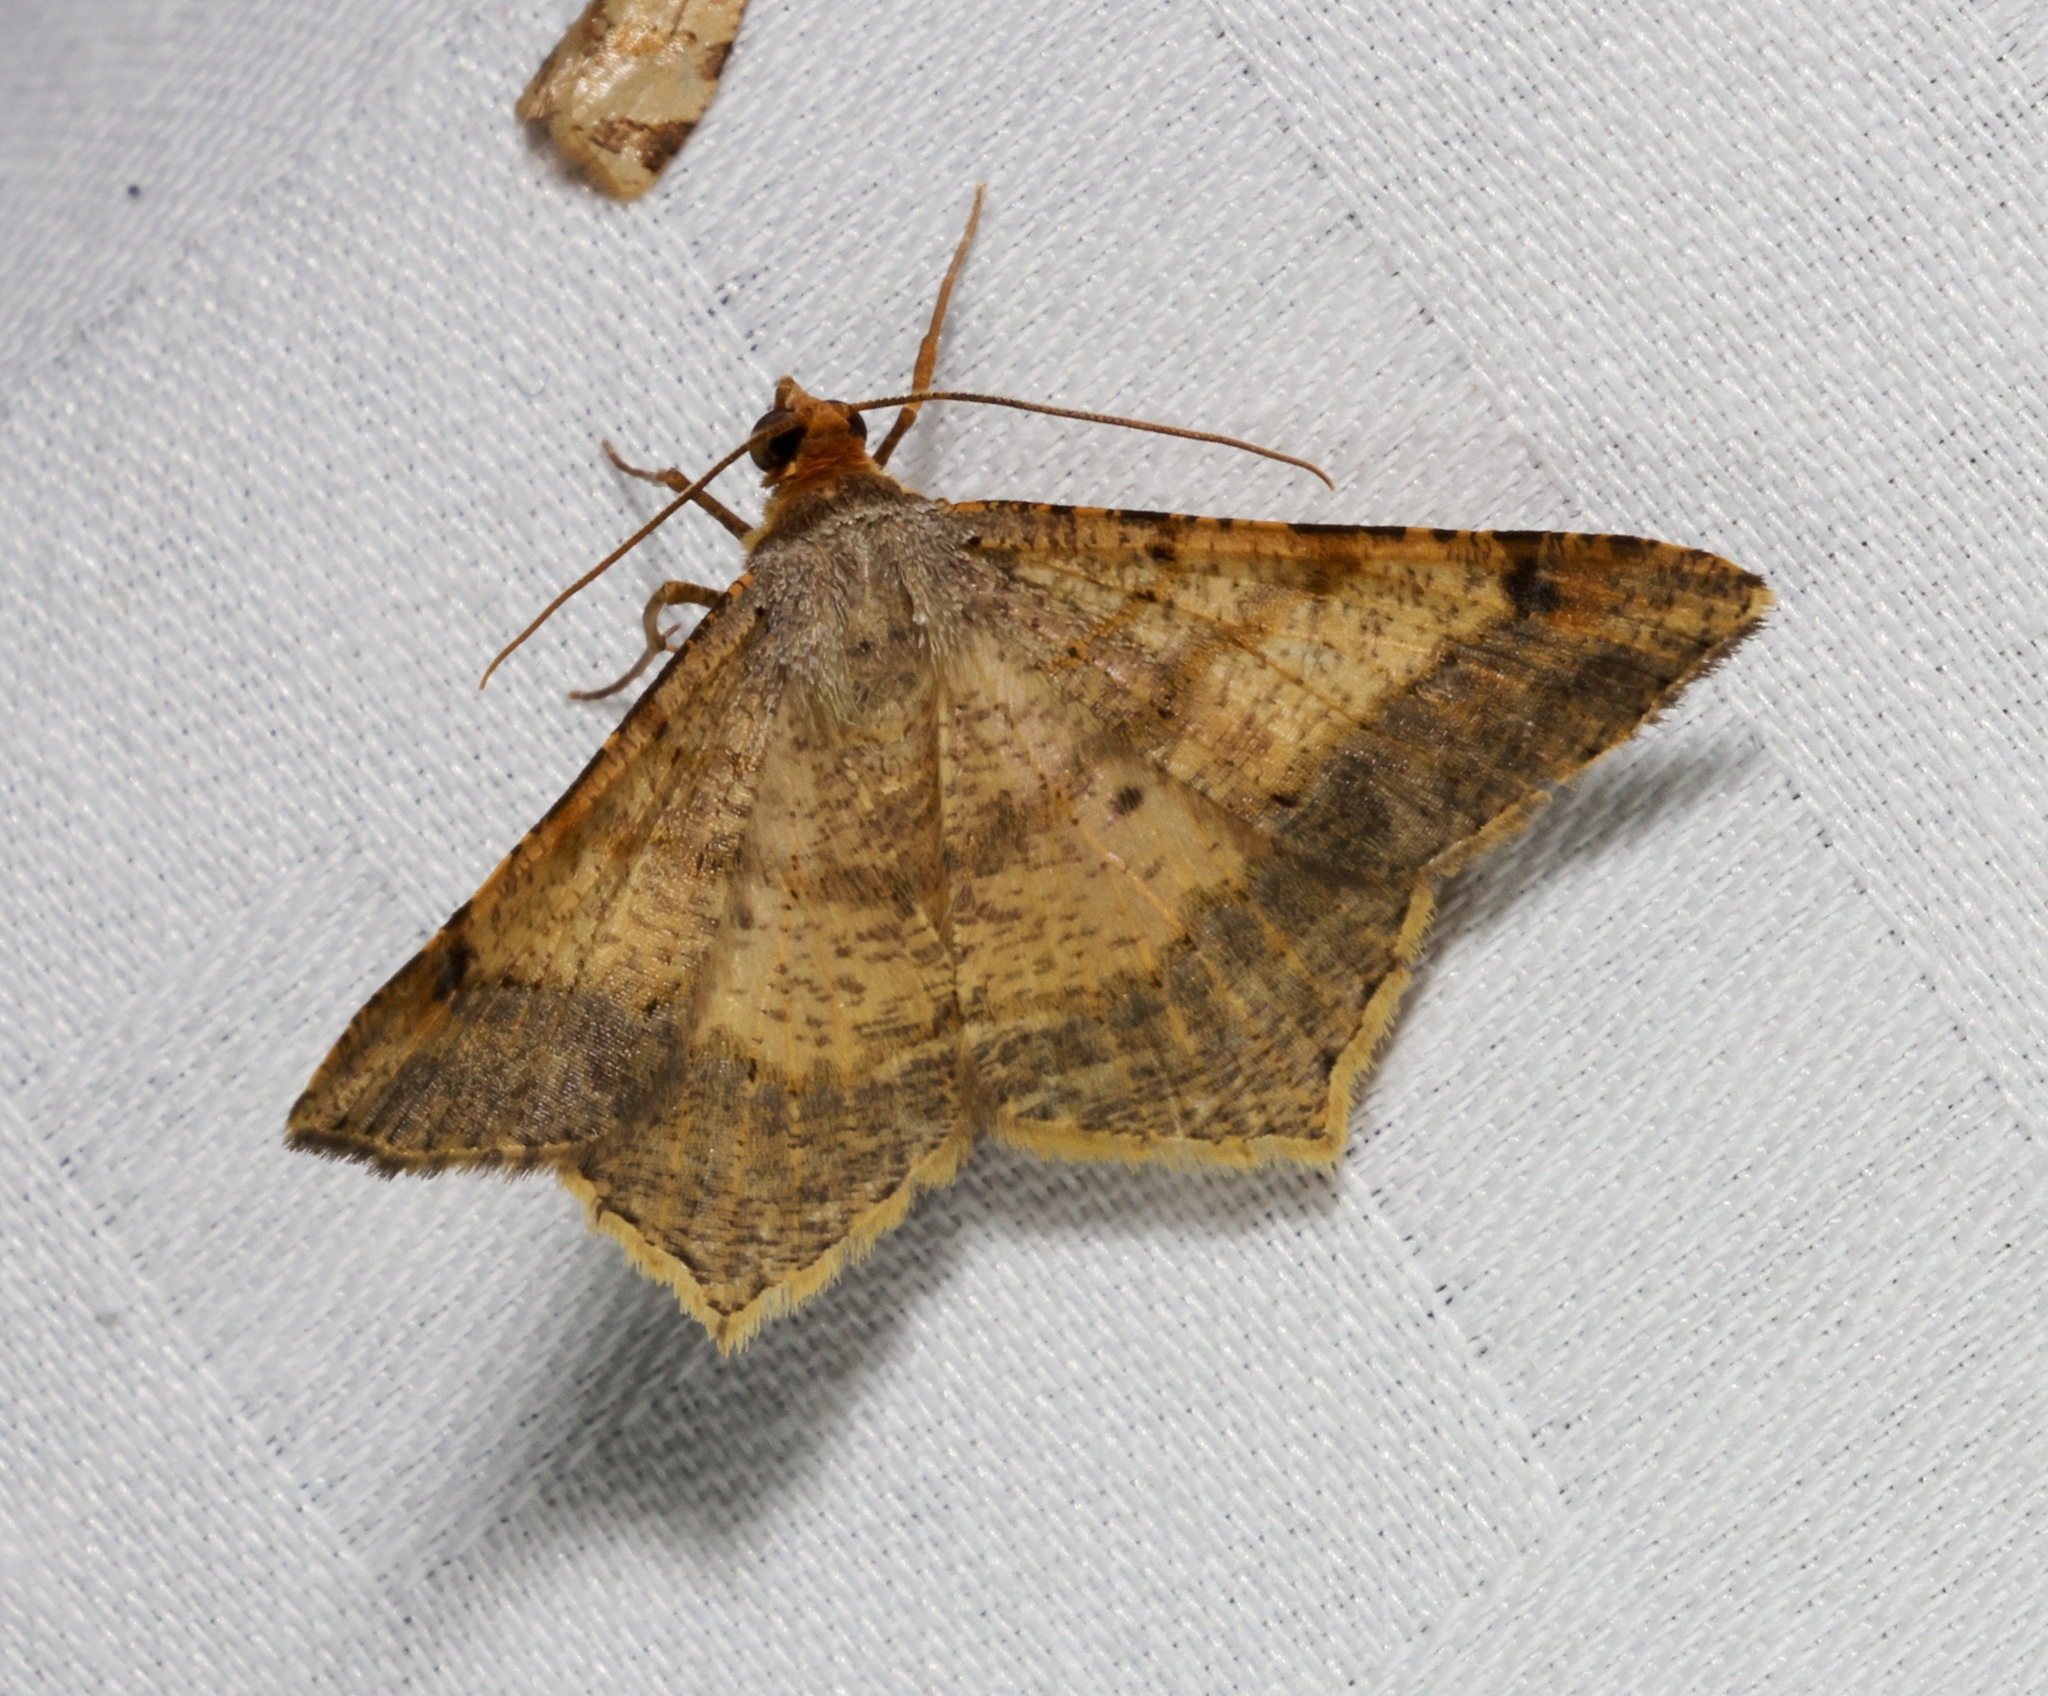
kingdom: Animalia
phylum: Arthropoda
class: Insecta
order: Lepidoptera
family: Geometridae
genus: Macaria
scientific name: Macaria abydata
